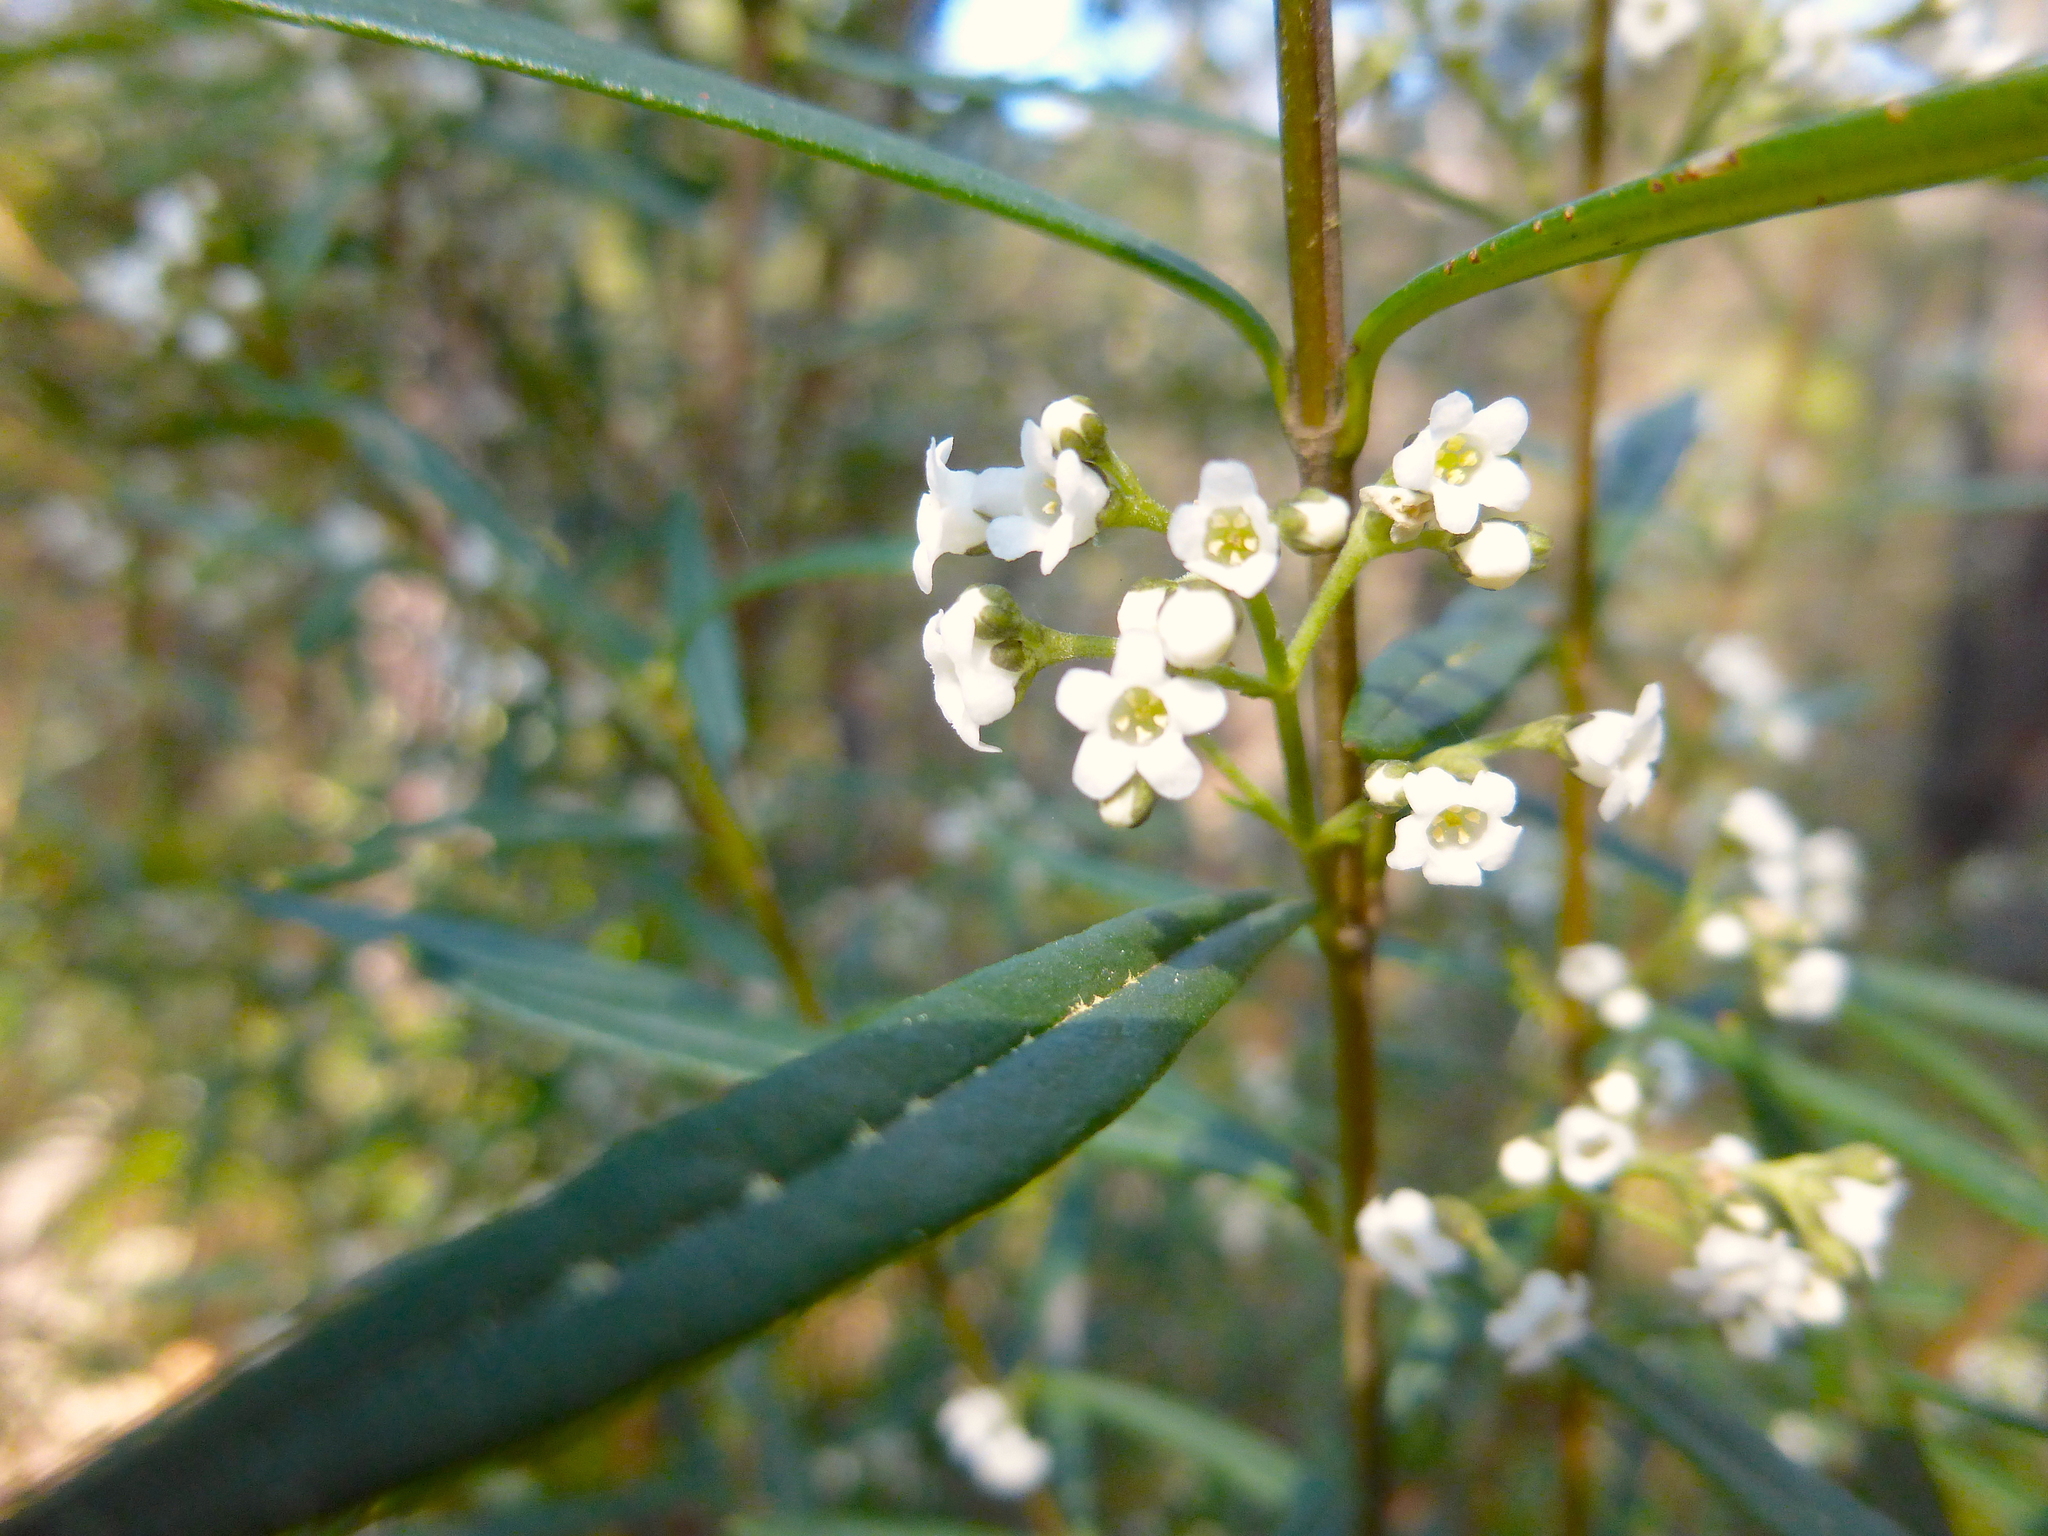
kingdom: Plantae
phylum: Tracheophyta
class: Magnoliopsida
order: Gentianales
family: Loganiaceae
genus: Logania
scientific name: Logania albiflora
